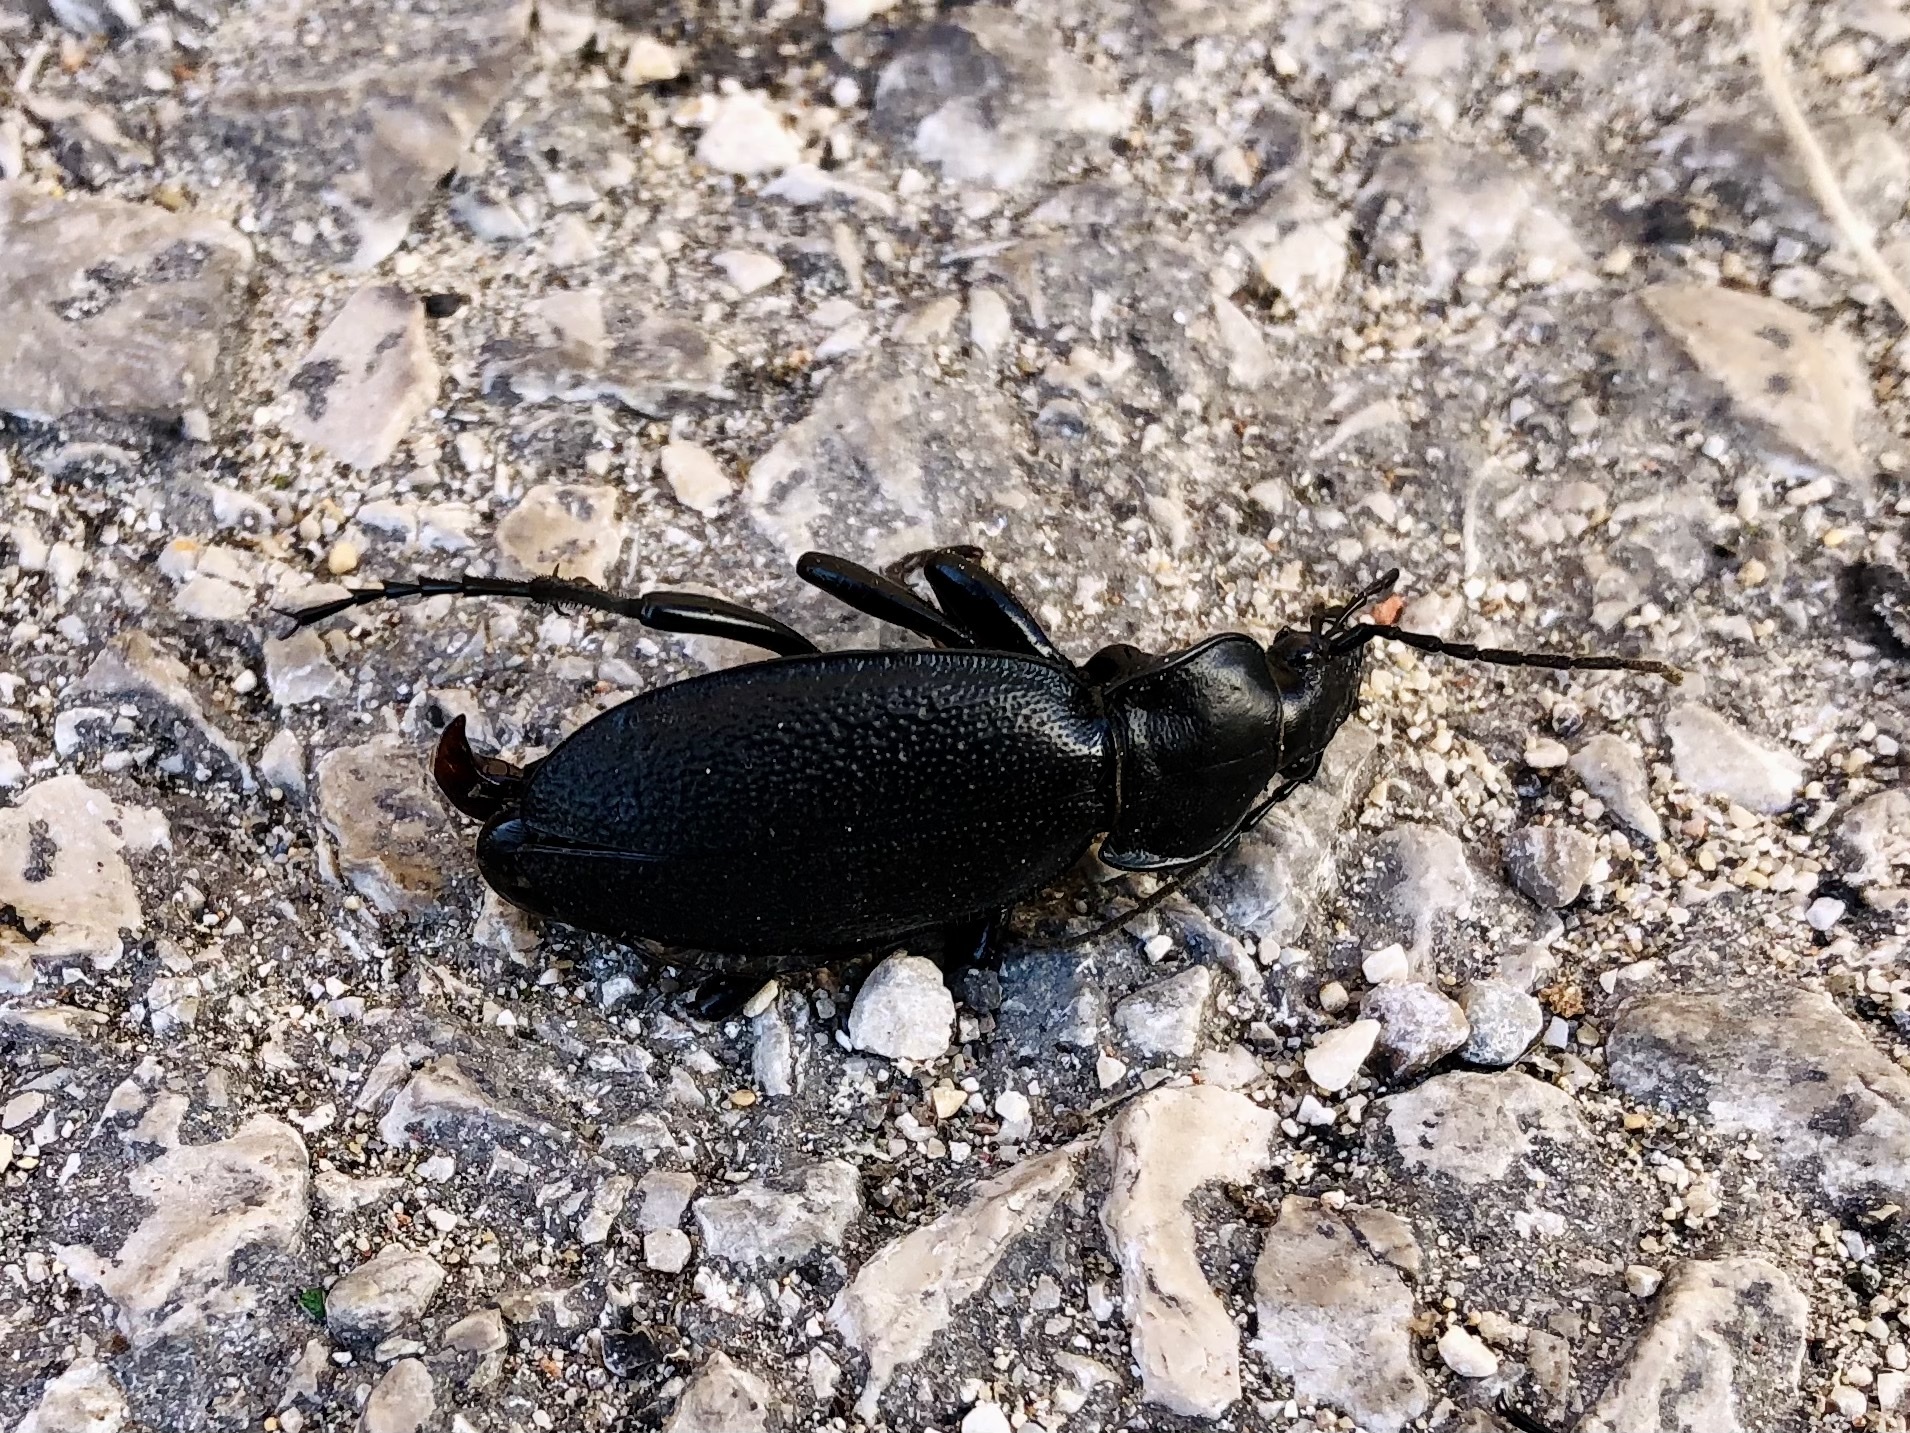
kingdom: Animalia
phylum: Arthropoda
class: Insecta
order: Coleoptera
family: Carabidae
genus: Carabus
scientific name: Carabus coriaceus
